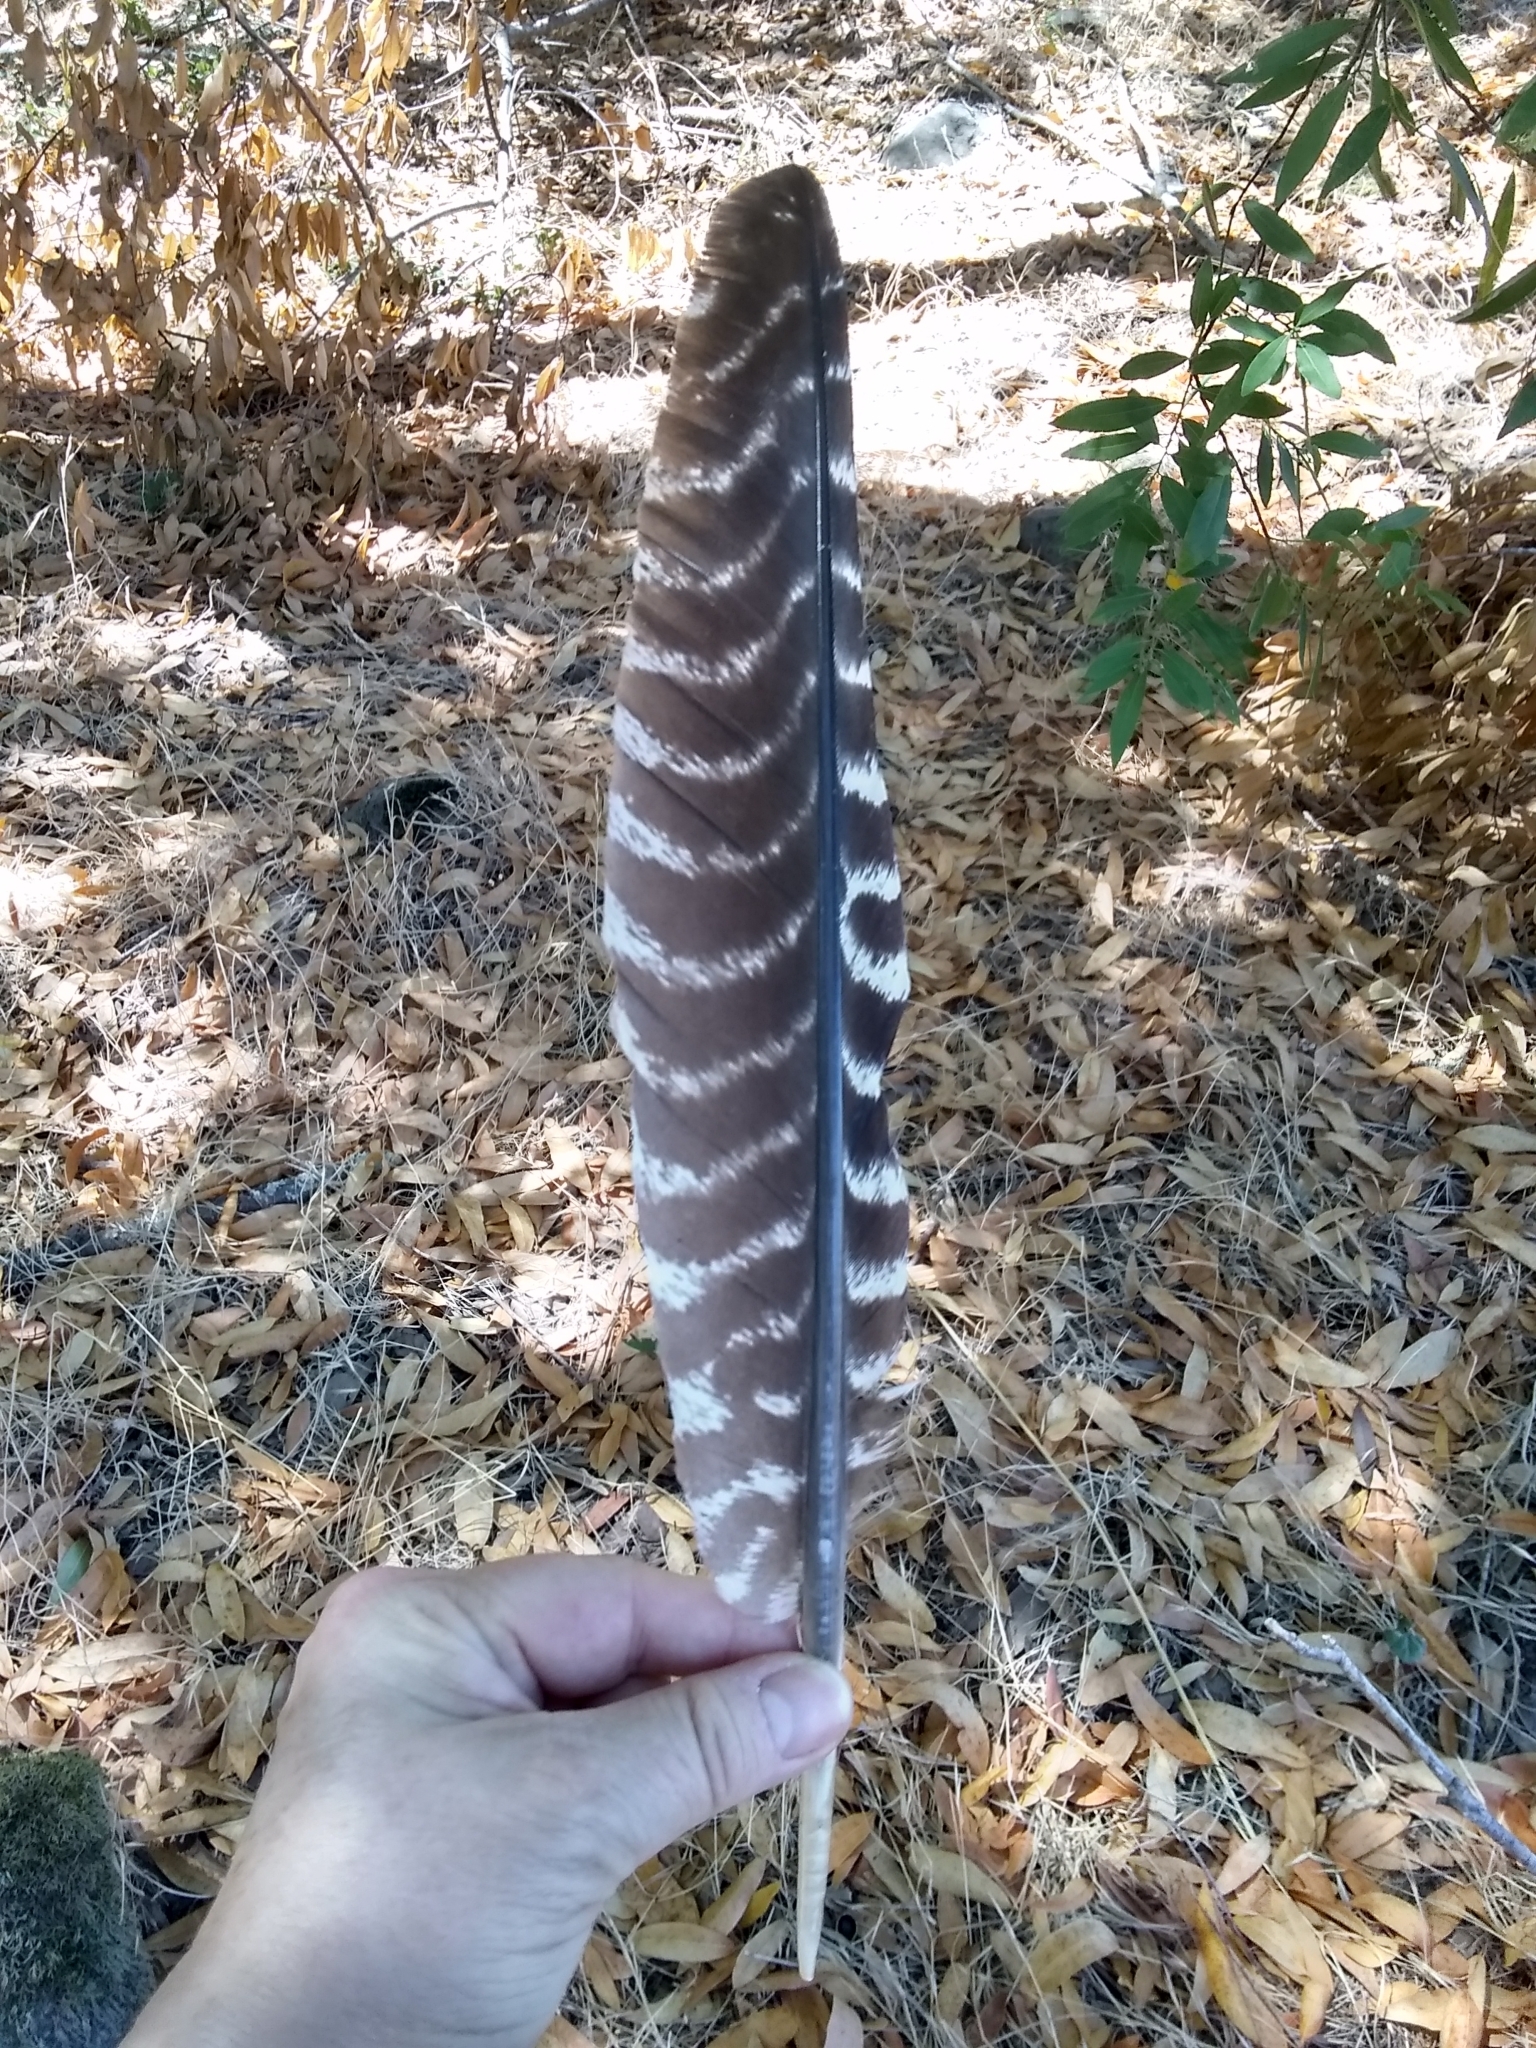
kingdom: Animalia
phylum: Chordata
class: Aves
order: Galliformes
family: Phasianidae
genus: Meleagris
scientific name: Meleagris gallopavo
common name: Wild turkey
